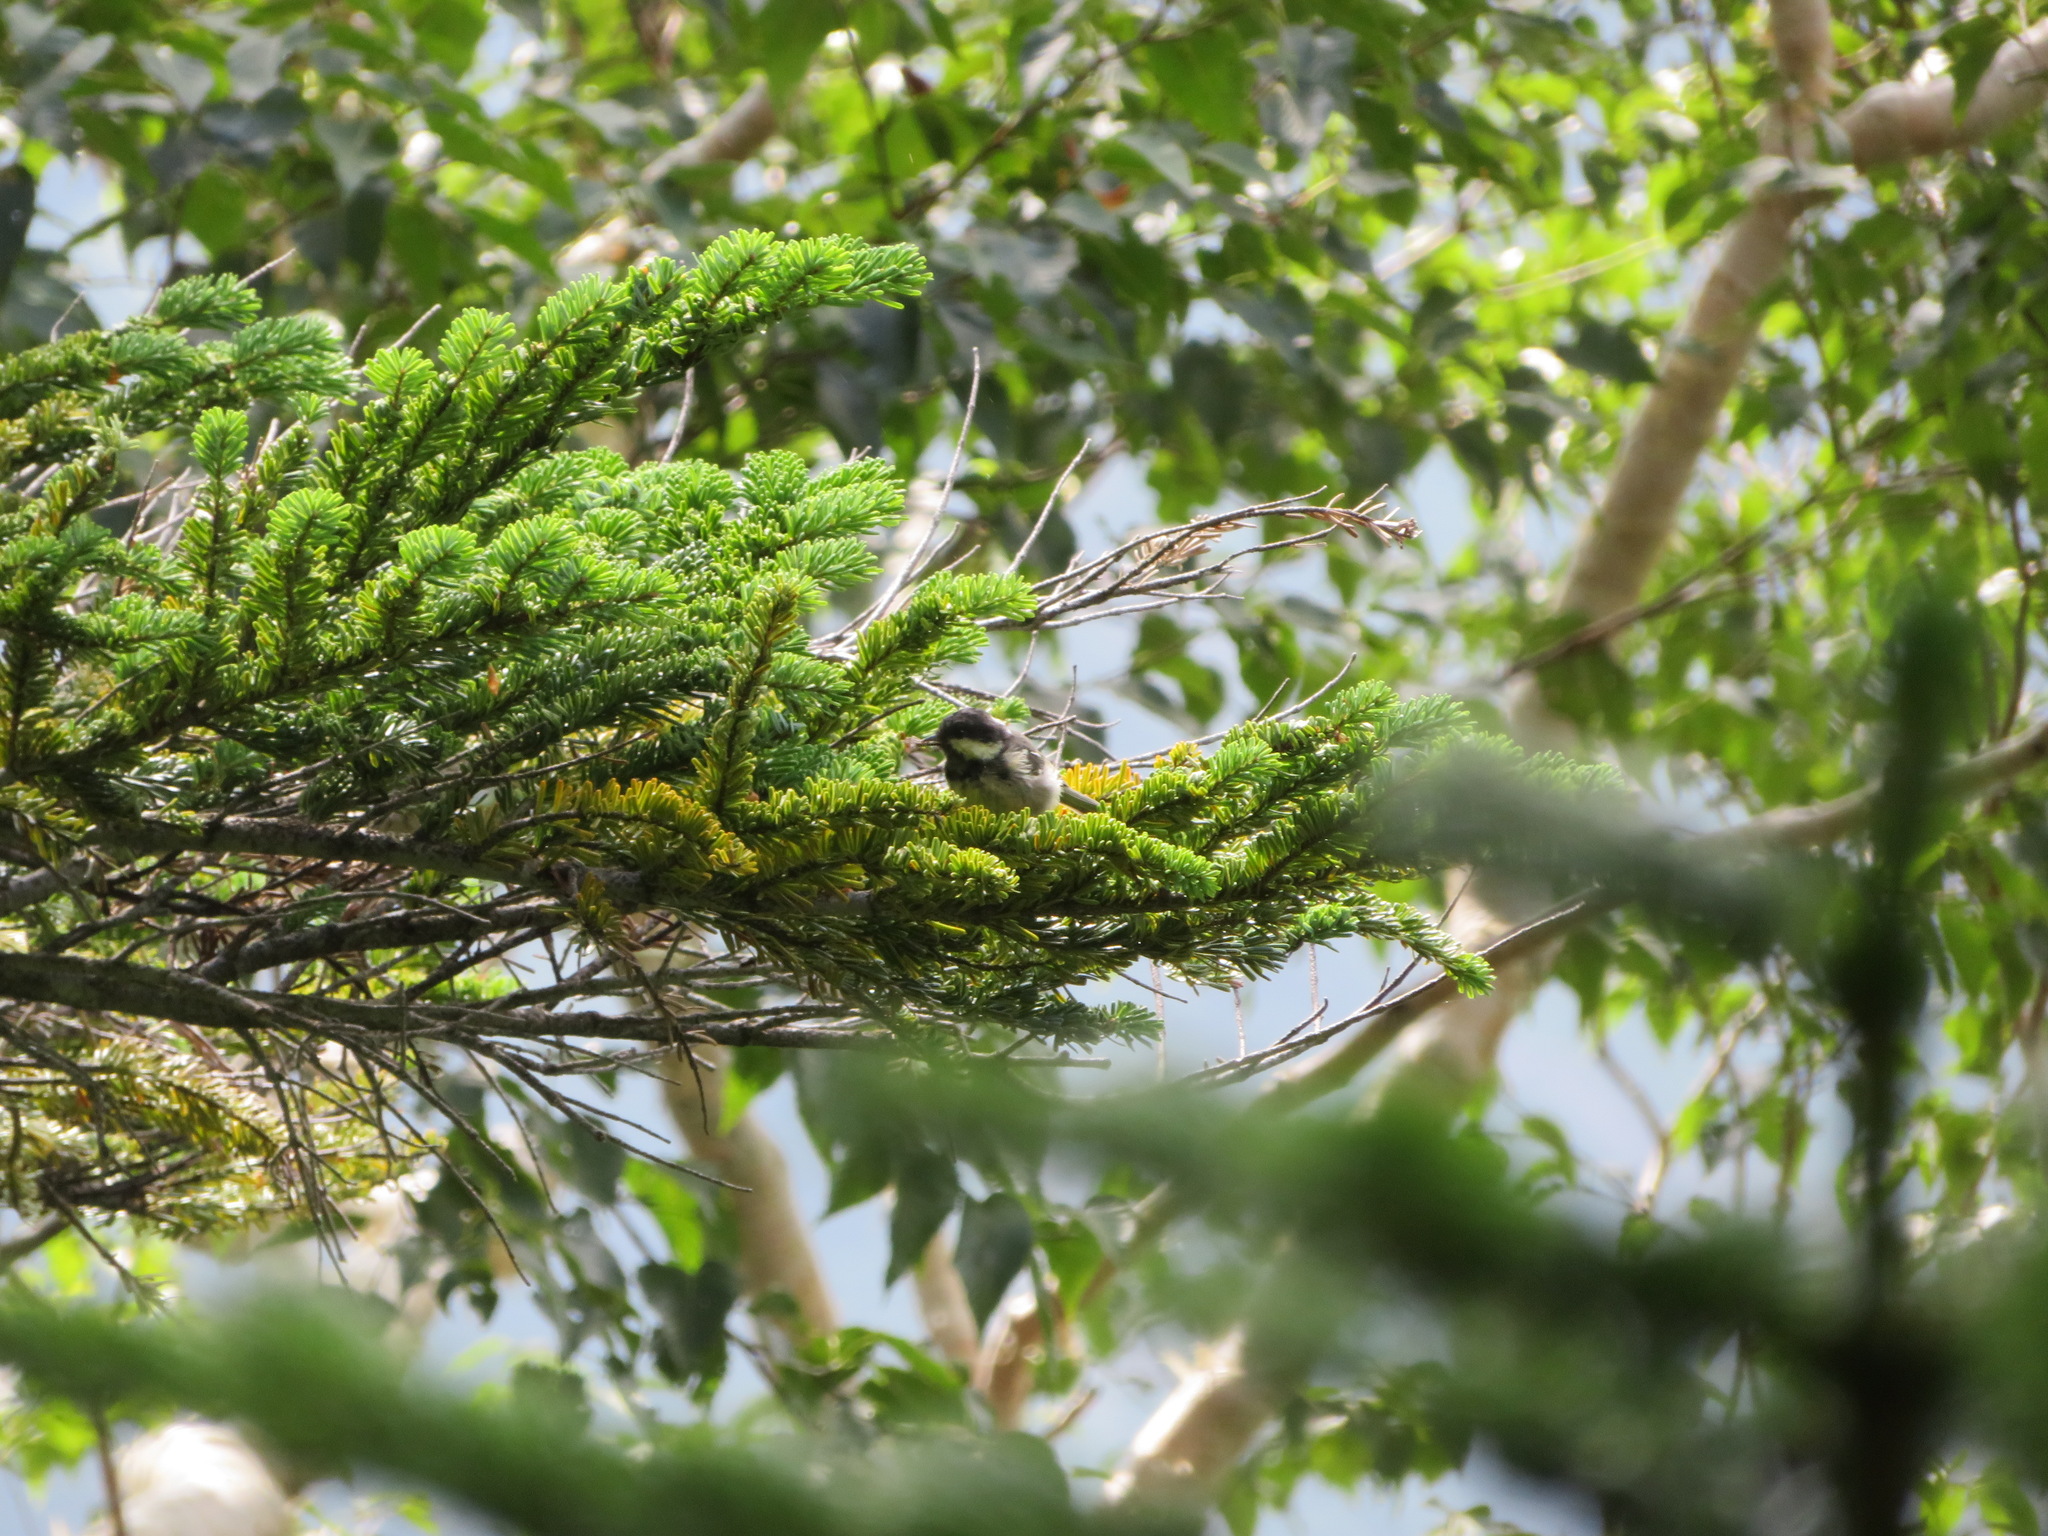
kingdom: Animalia
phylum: Chordata
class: Aves
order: Passeriformes
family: Paridae
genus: Periparus
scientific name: Periparus ater
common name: Coal tit
